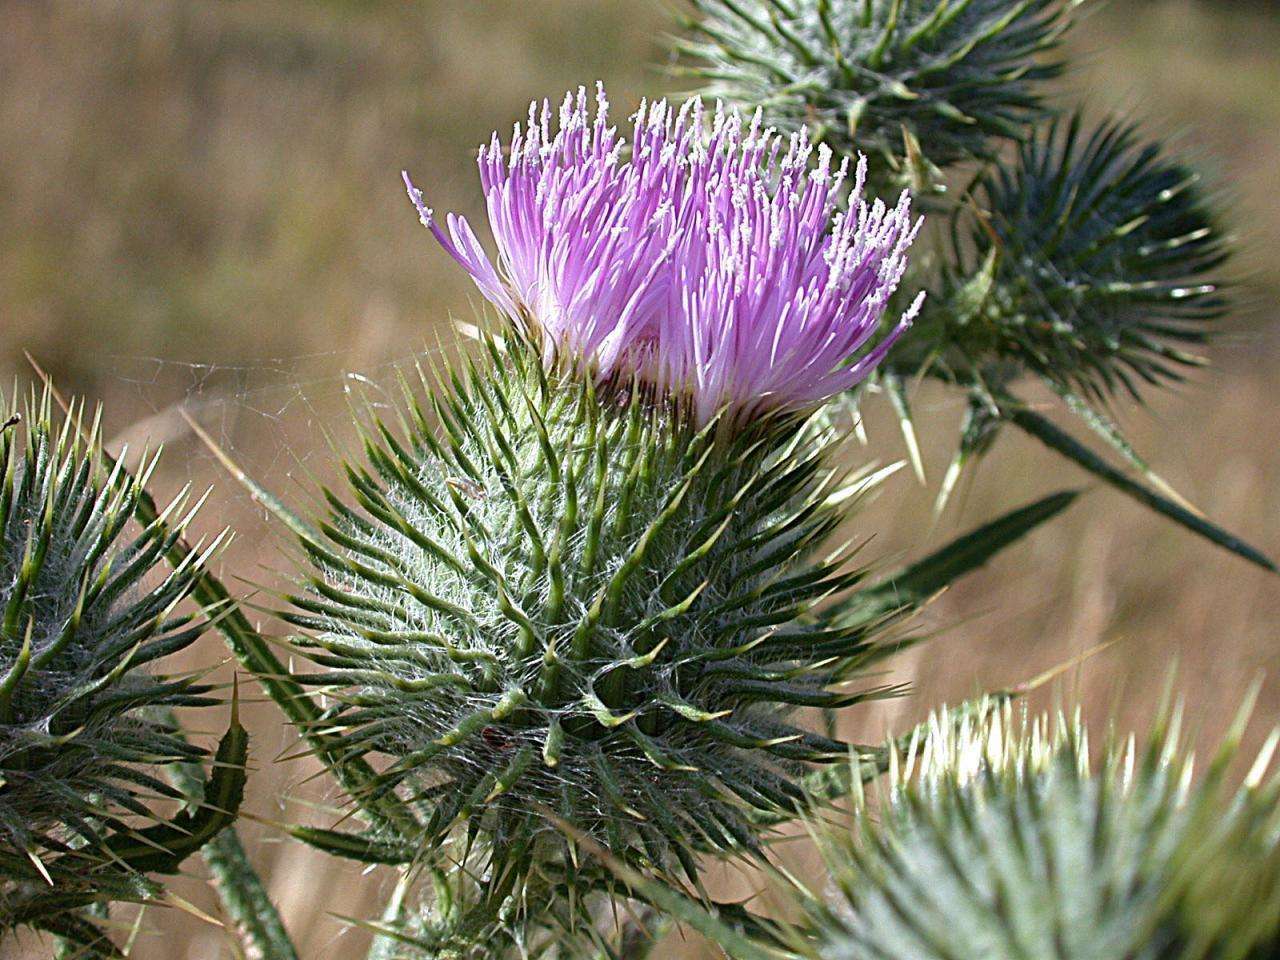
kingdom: Plantae
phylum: Tracheophyta
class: Magnoliopsida
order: Asterales
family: Asteraceae
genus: Cirsium
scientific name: Cirsium vulgare
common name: Bull thistle
